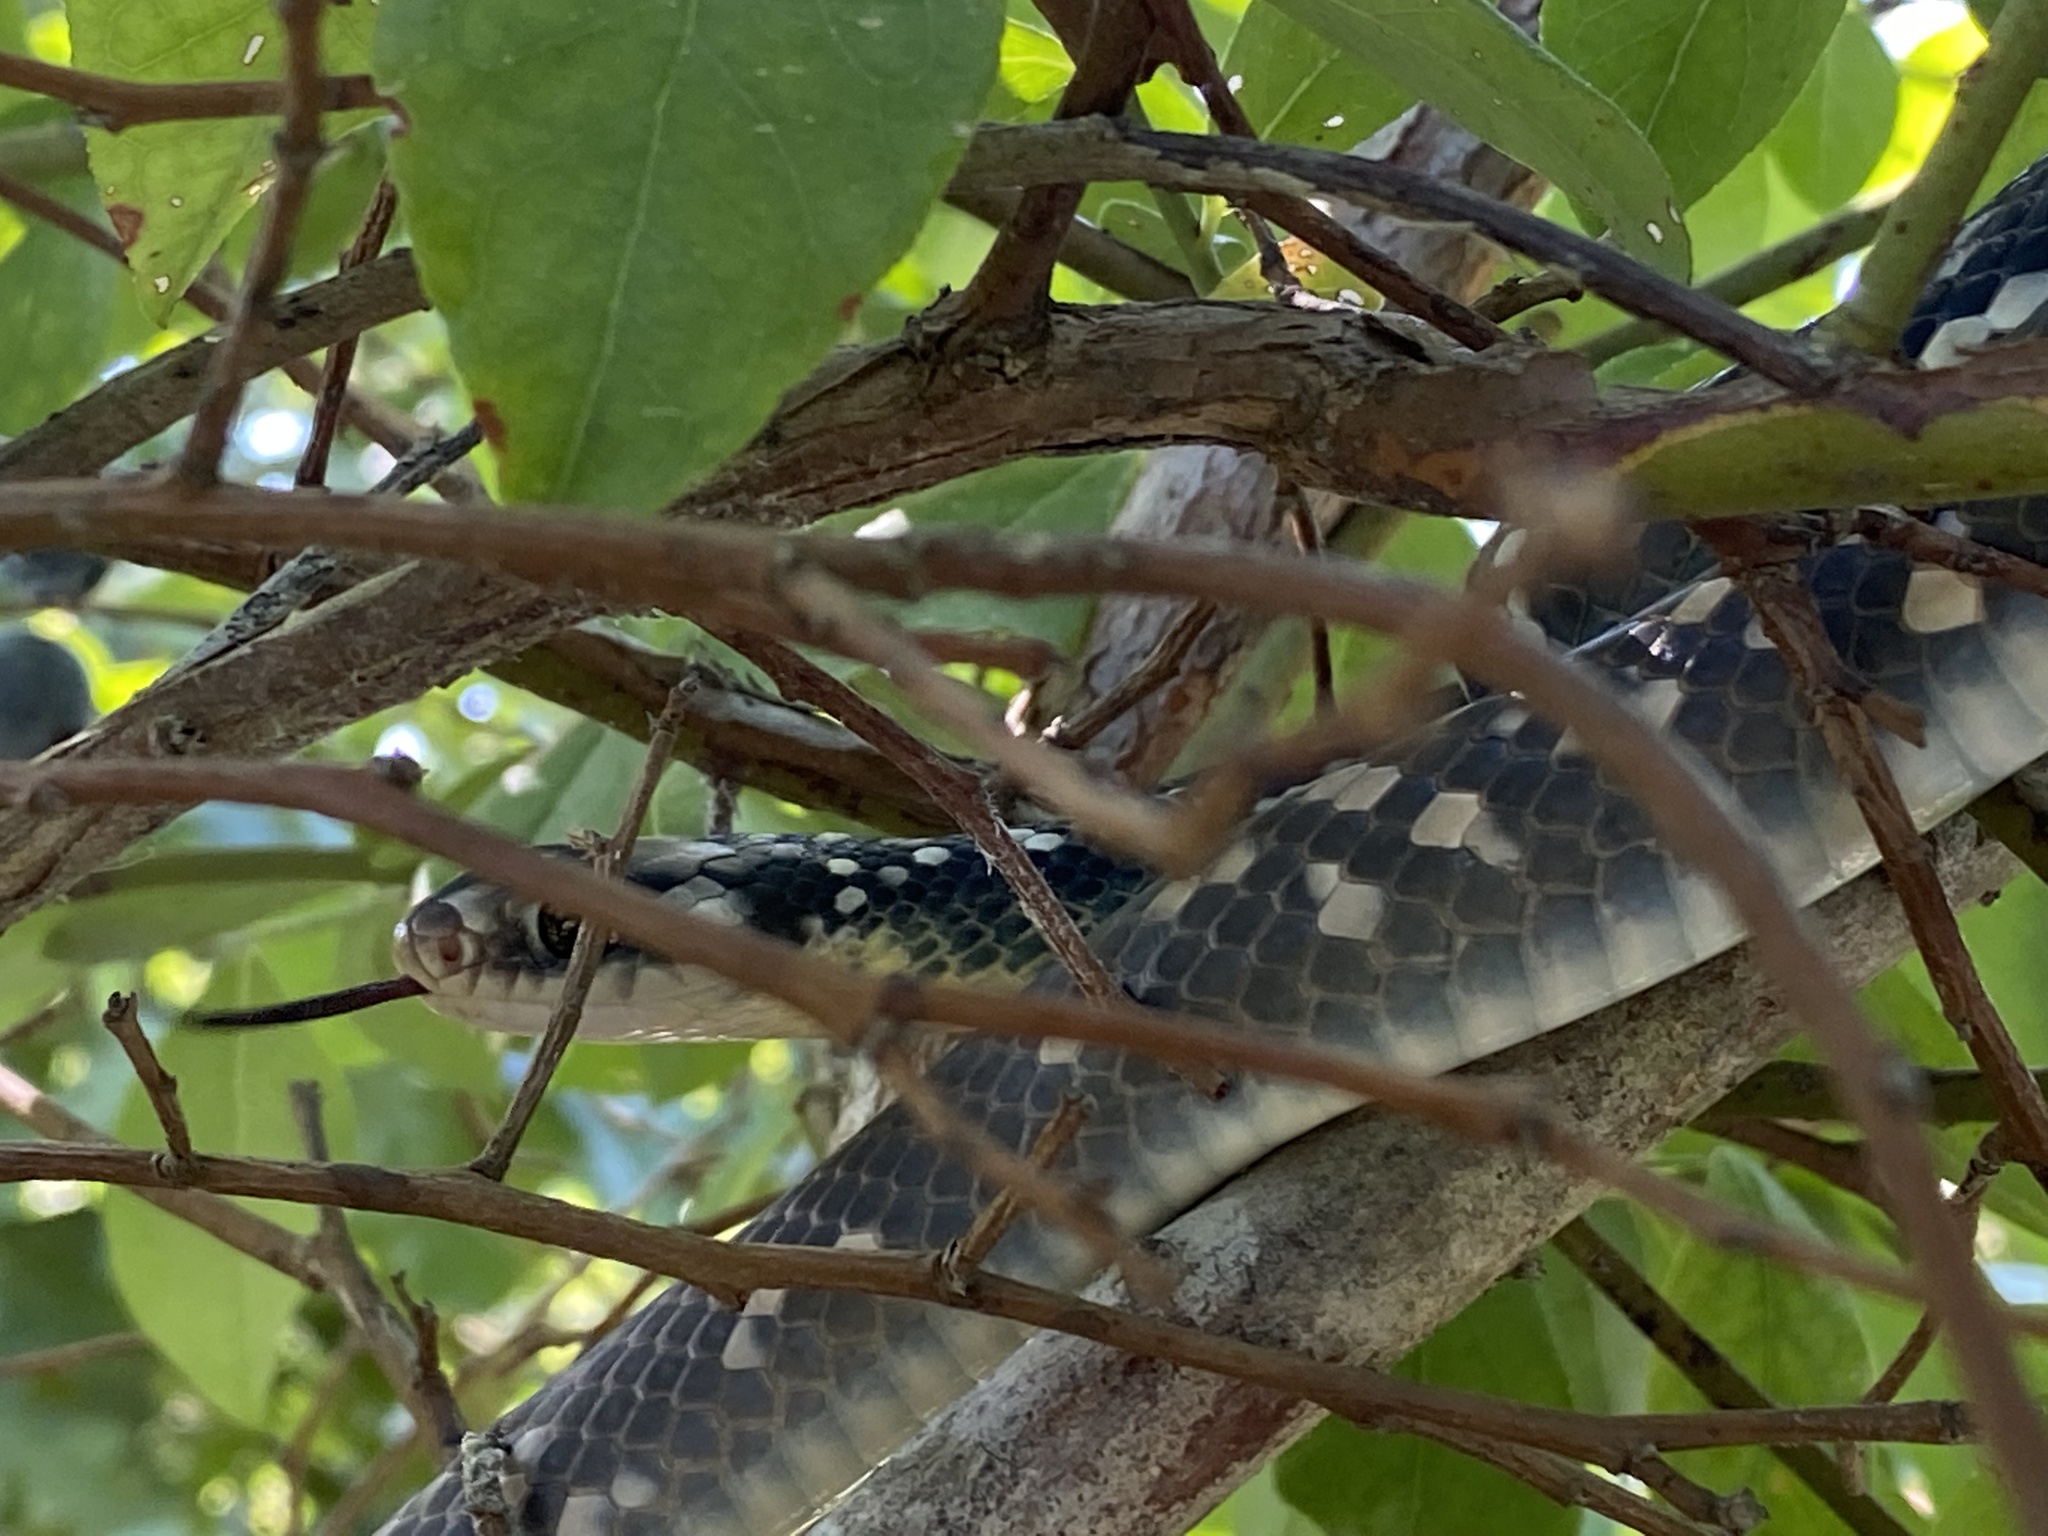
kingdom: Animalia
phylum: Chordata
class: Squamata
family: Colubridae
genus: Coluber
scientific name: Coluber constrictor
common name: Eastern racer
